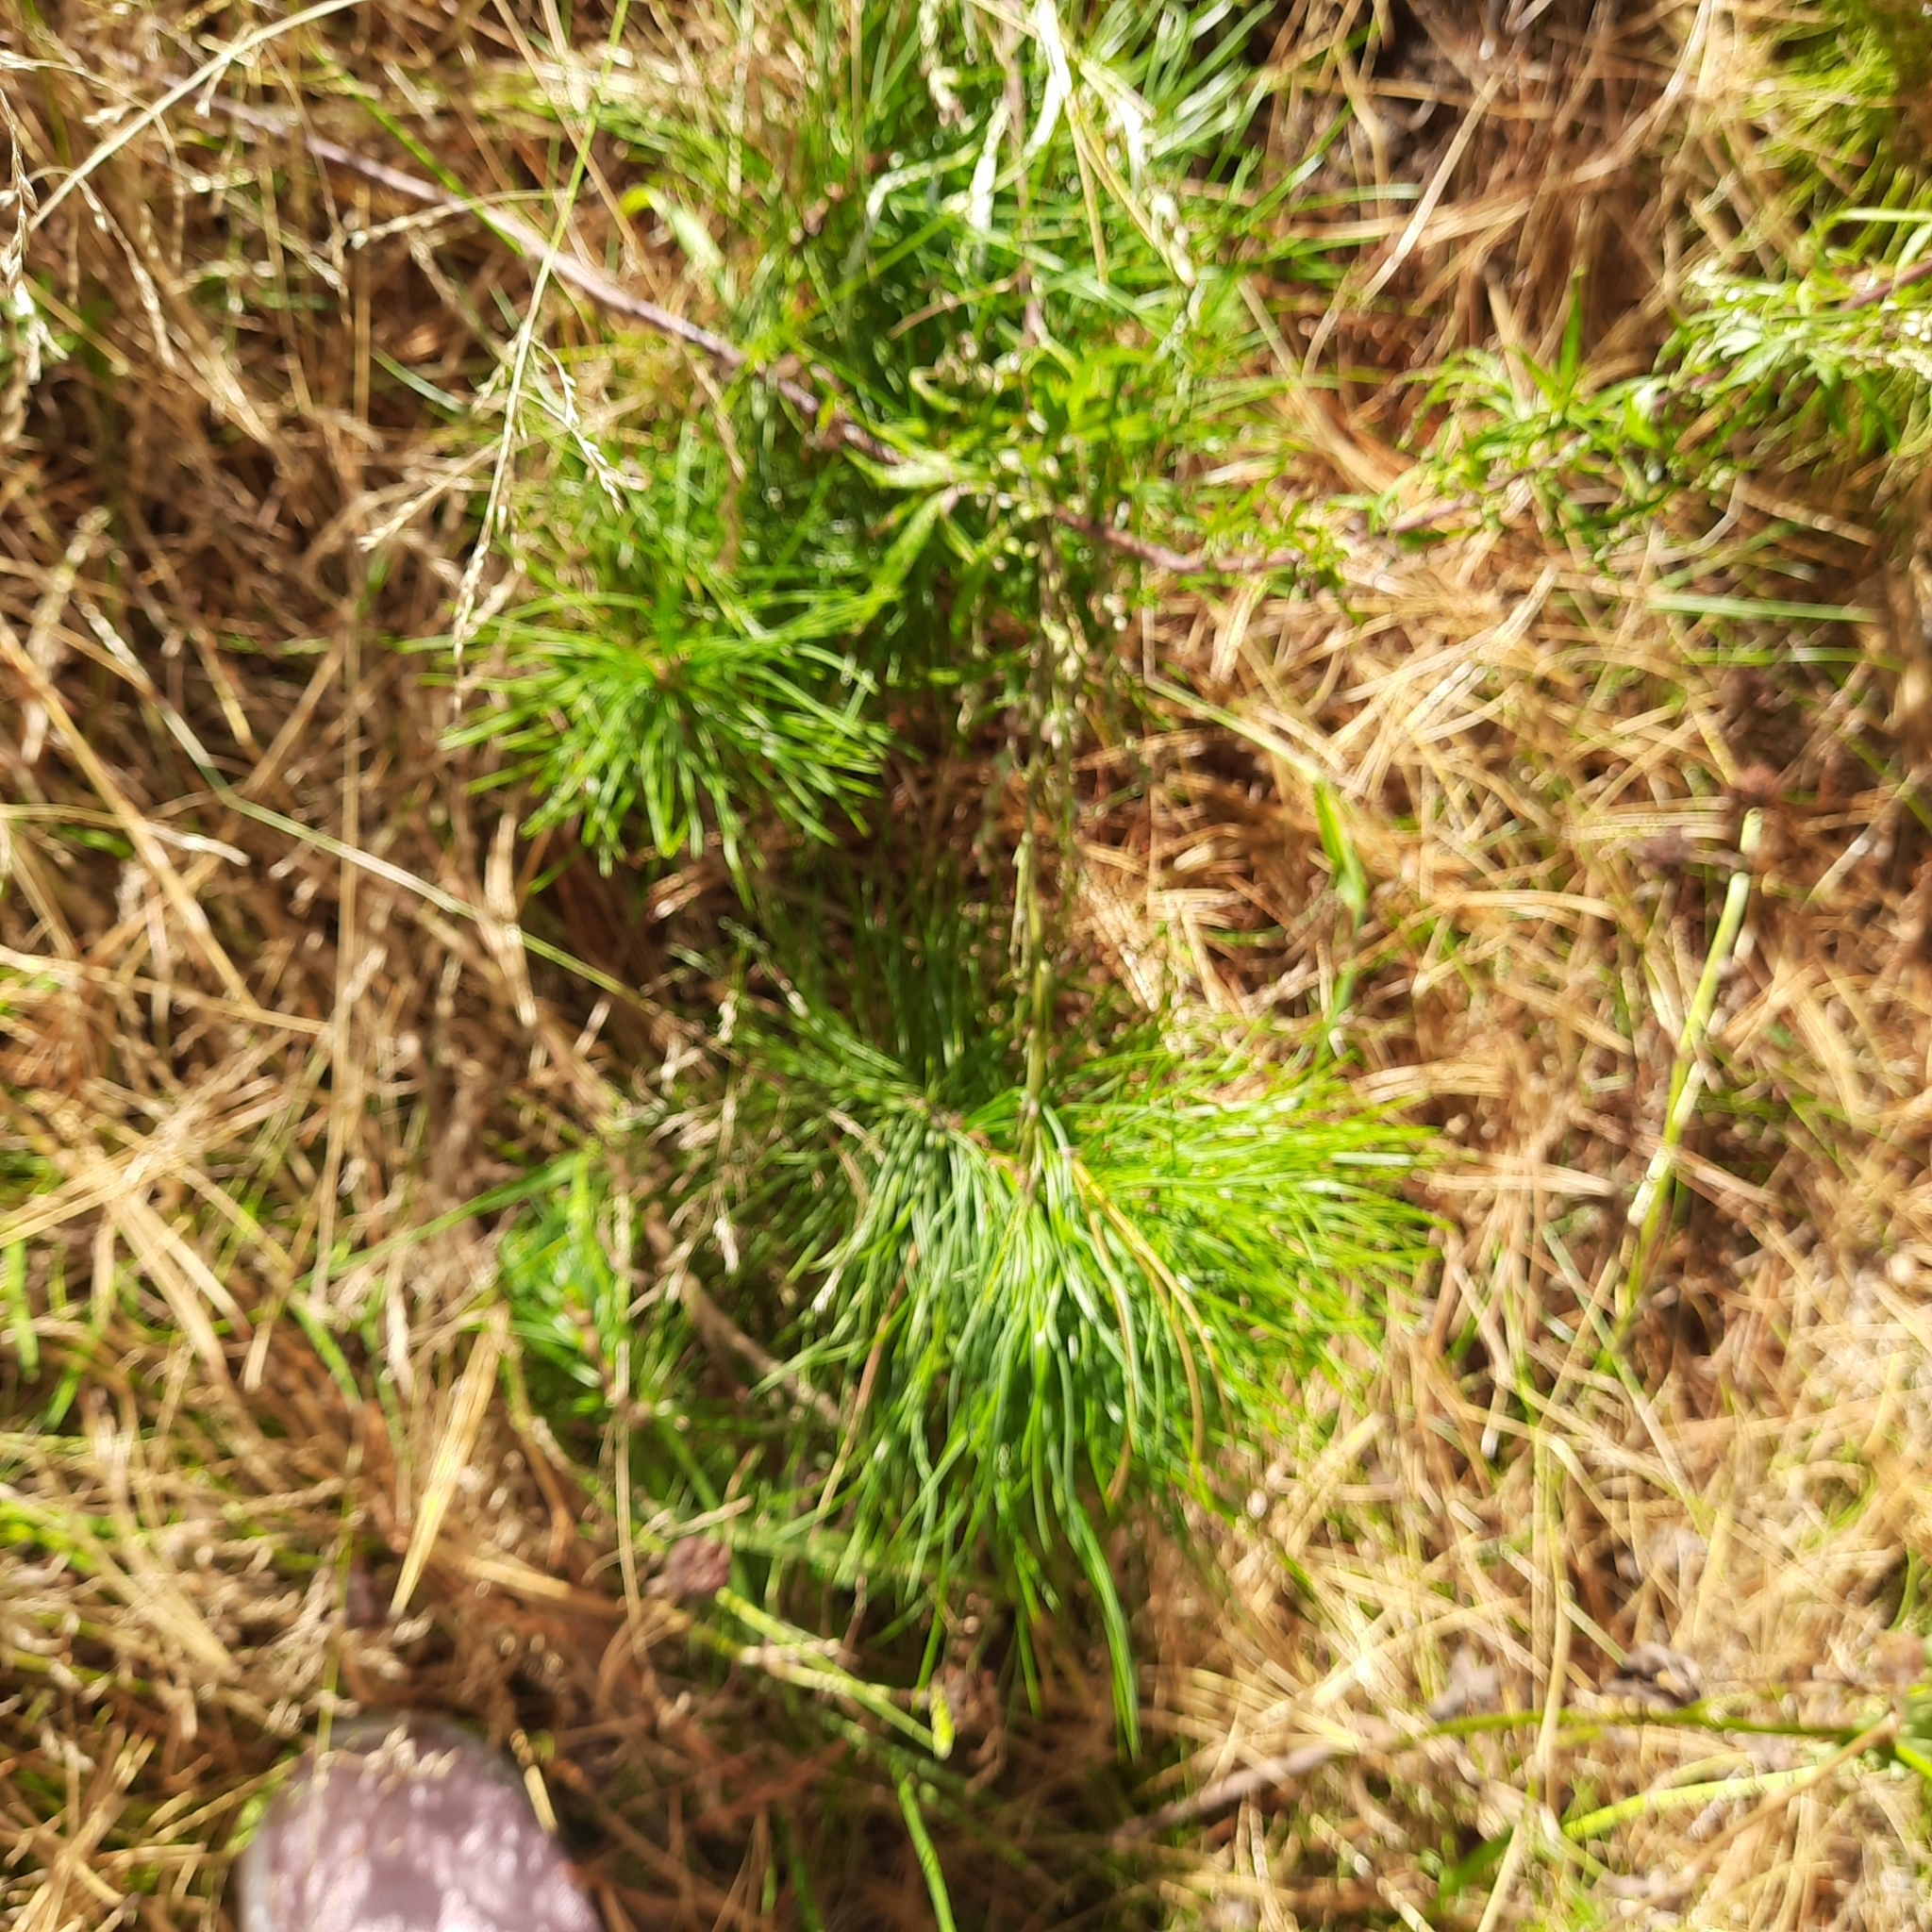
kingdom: Plantae
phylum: Tracheophyta
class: Pinopsida
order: Pinales
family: Pinaceae
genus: Pinus
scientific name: Pinus sibirica
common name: Siberian pine
